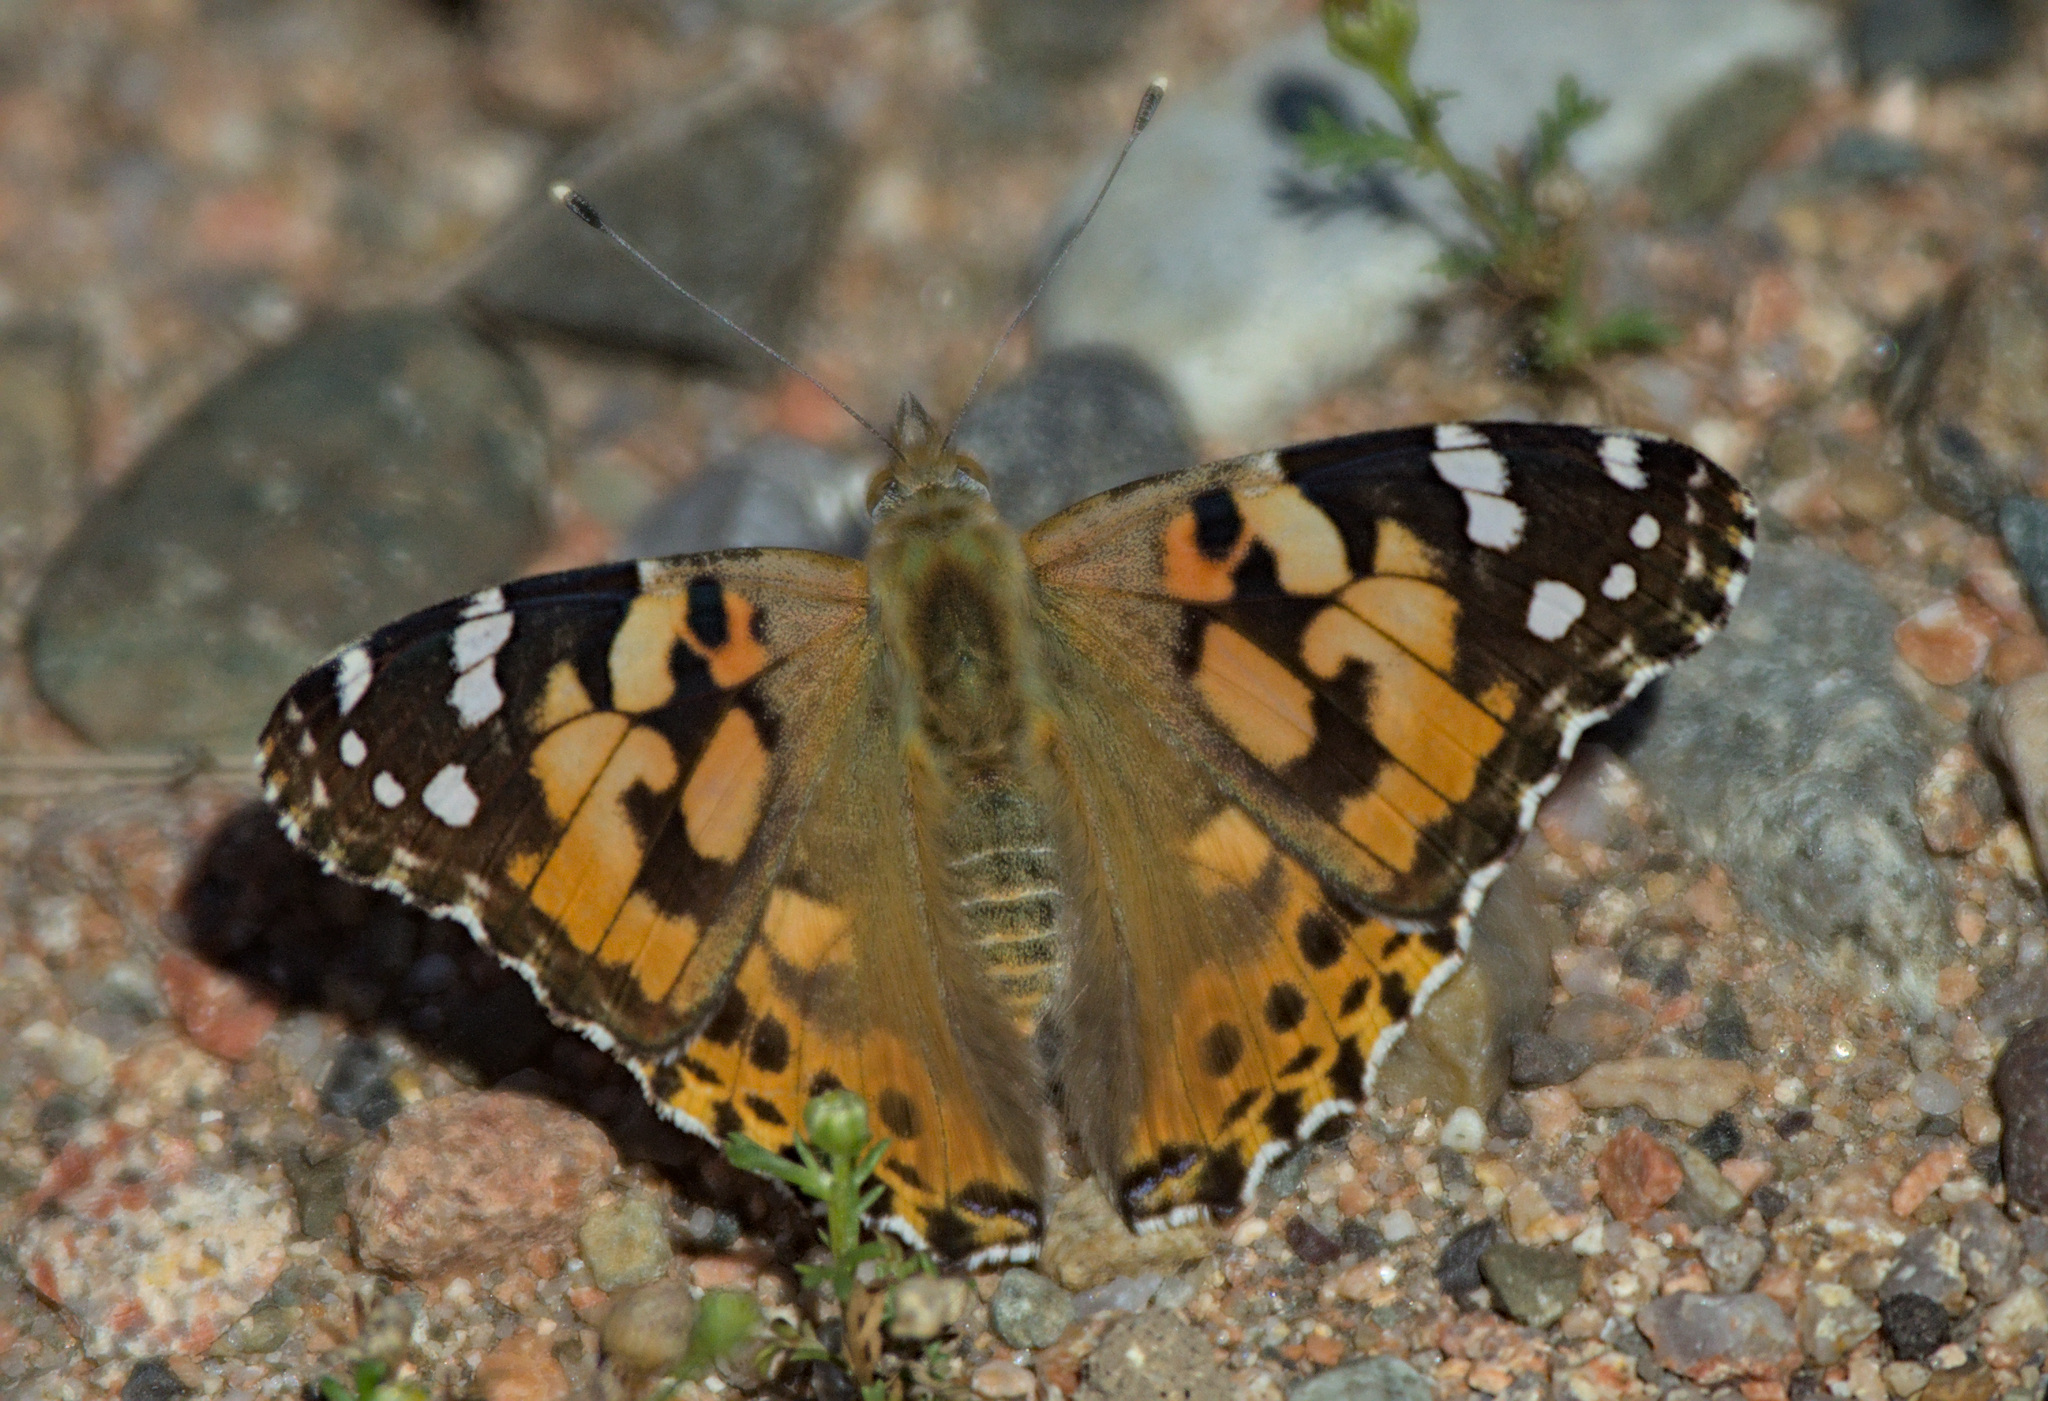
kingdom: Animalia
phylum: Arthropoda
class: Insecta
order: Lepidoptera
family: Nymphalidae
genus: Vanessa
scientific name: Vanessa cardui
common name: Painted lady
